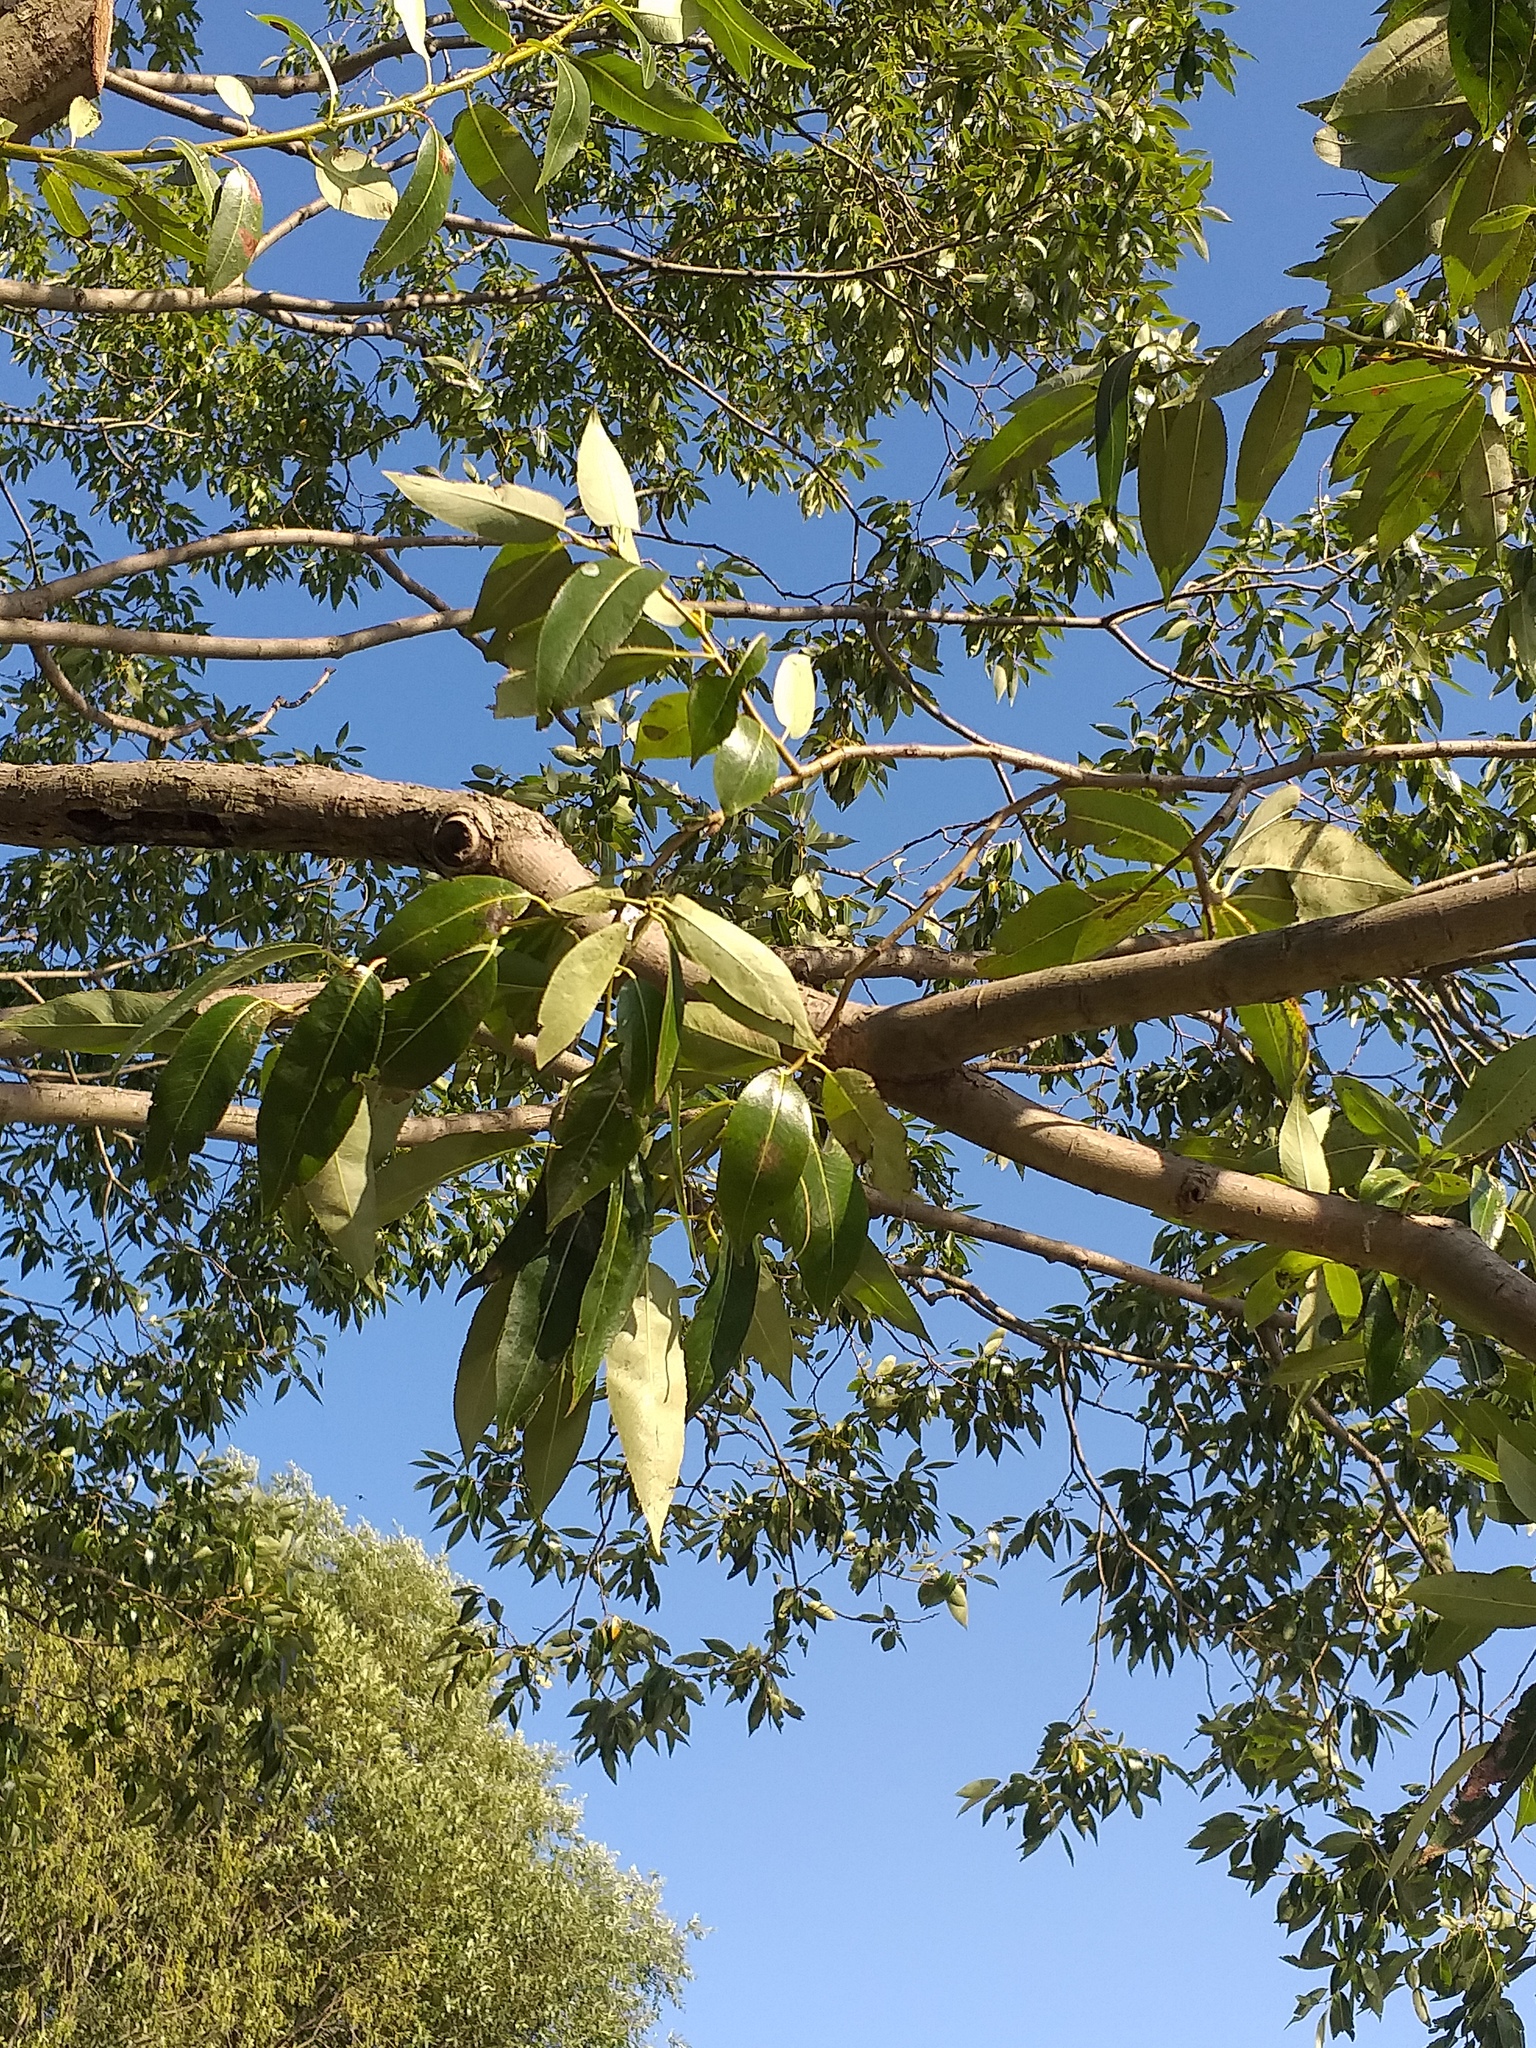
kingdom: Plantae
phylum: Tracheophyta
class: Magnoliopsida
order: Malpighiales
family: Salicaceae
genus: Salix
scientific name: Salix pentandra
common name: Bay willow
